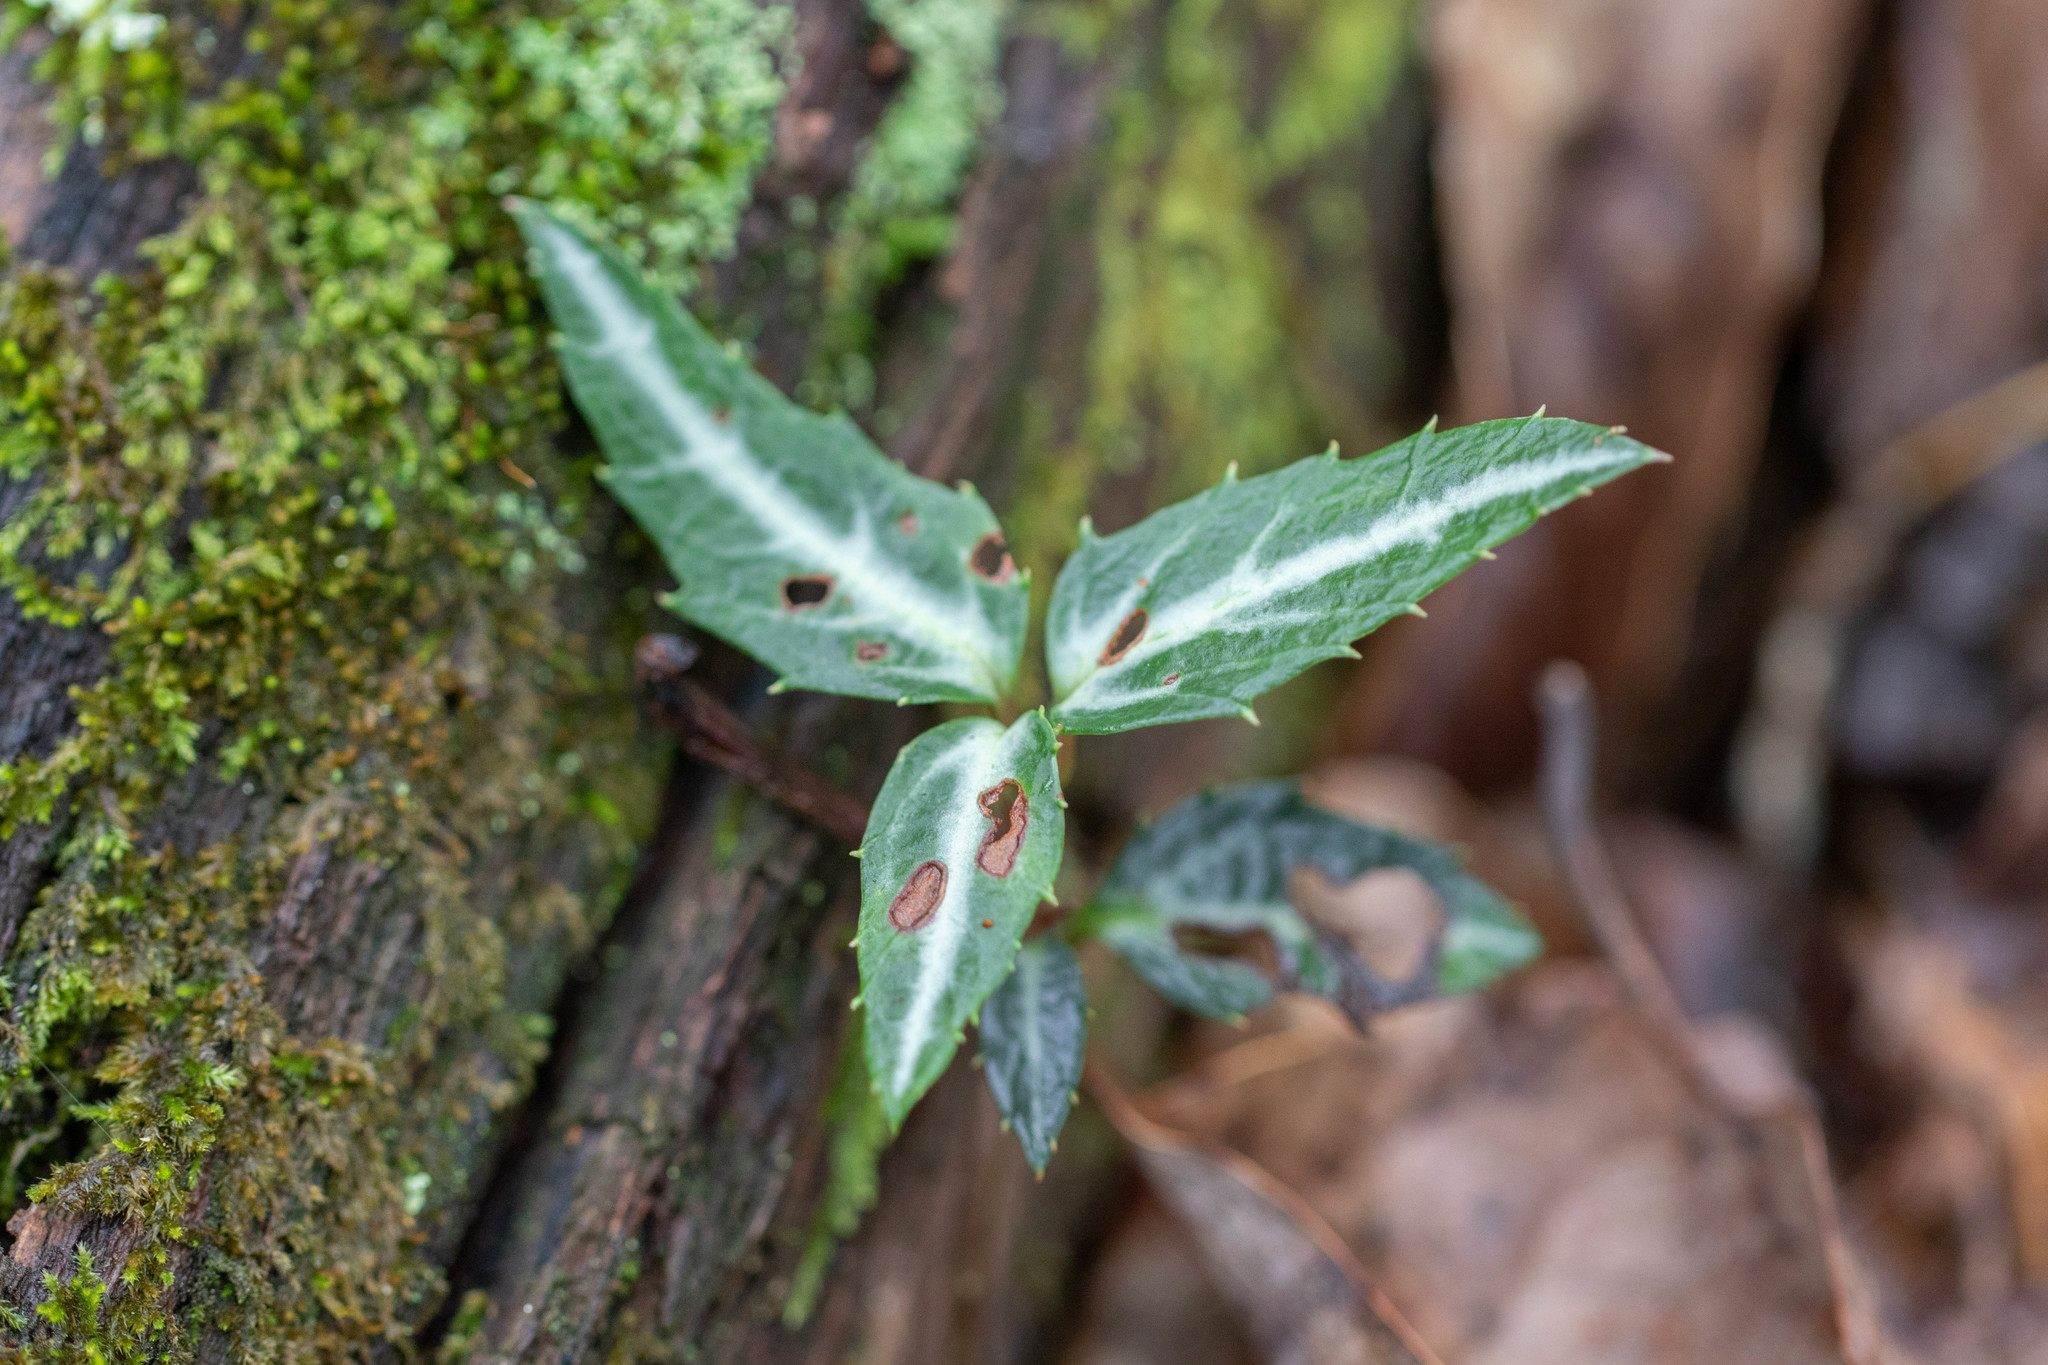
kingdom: Plantae
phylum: Tracheophyta
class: Magnoliopsida
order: Ericales
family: Ericaceae
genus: Chimaphila
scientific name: Chimaphila maculata
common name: Spotted pipsissewa
